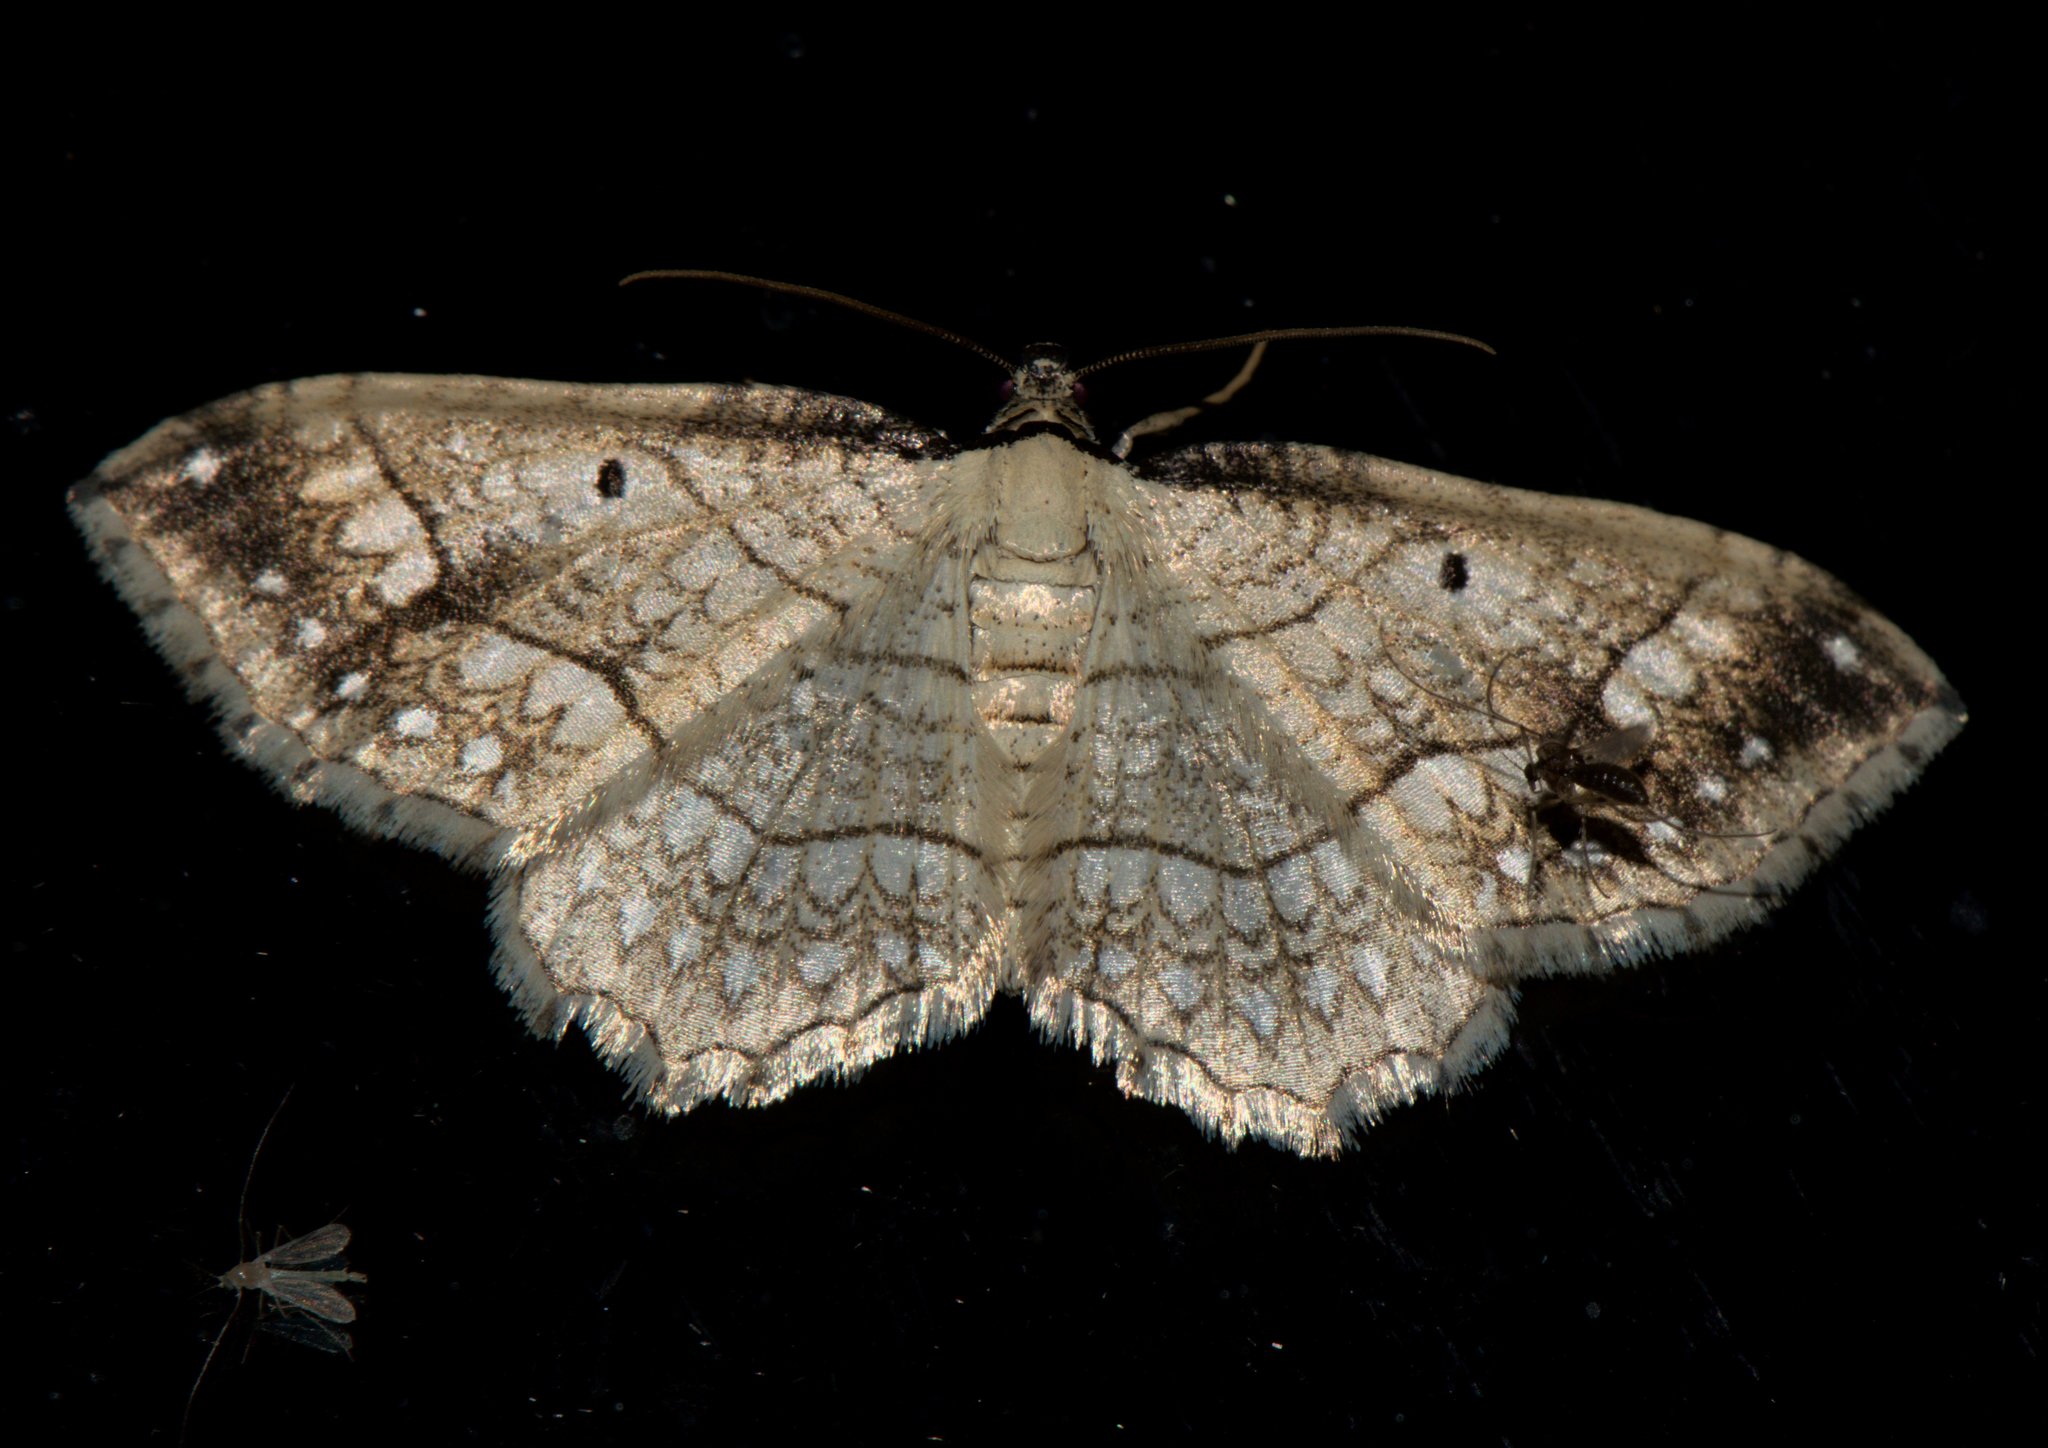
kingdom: Animalia
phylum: Arthropoda
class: Insecta
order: Lepidoptera
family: Geometridae
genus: Laciniodes
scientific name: Laciniodes plurilinearia
